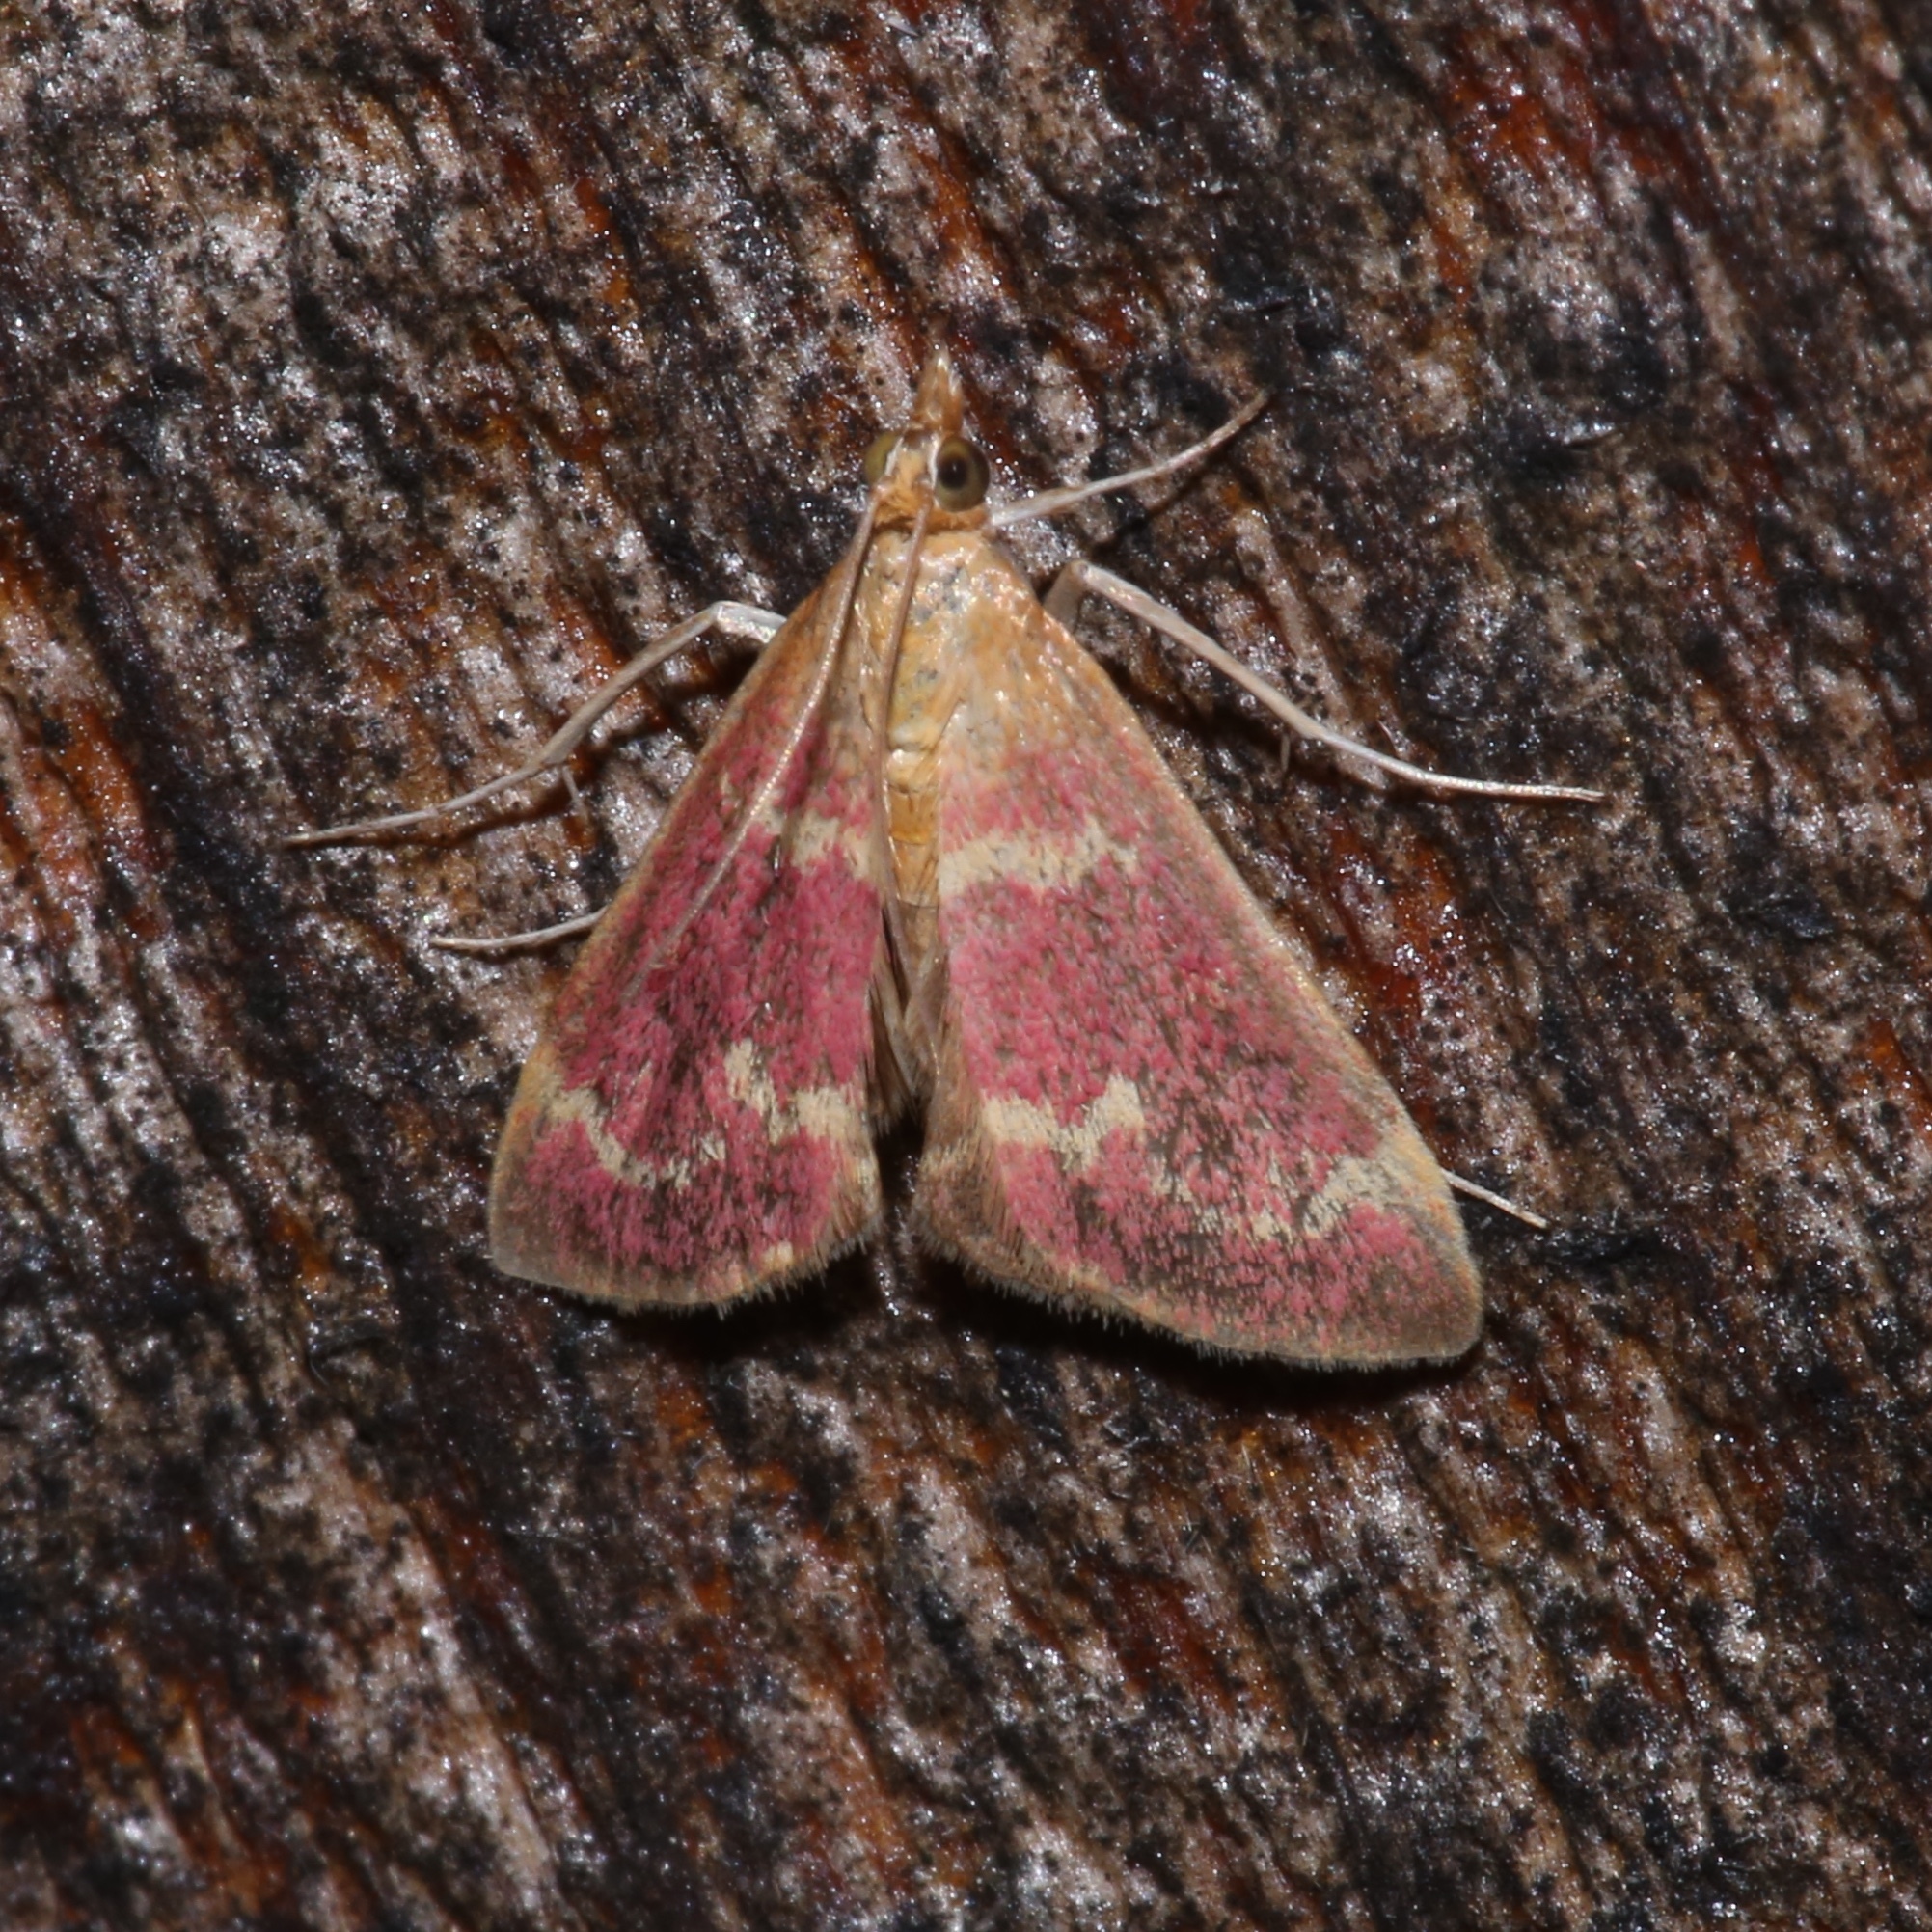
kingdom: Animalia
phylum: Arthropoda
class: Insecta
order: Lepidoptera
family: Crambidae
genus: Pyrausta
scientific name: Pyrausta signatalis
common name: Raspberry pyrausta moth
